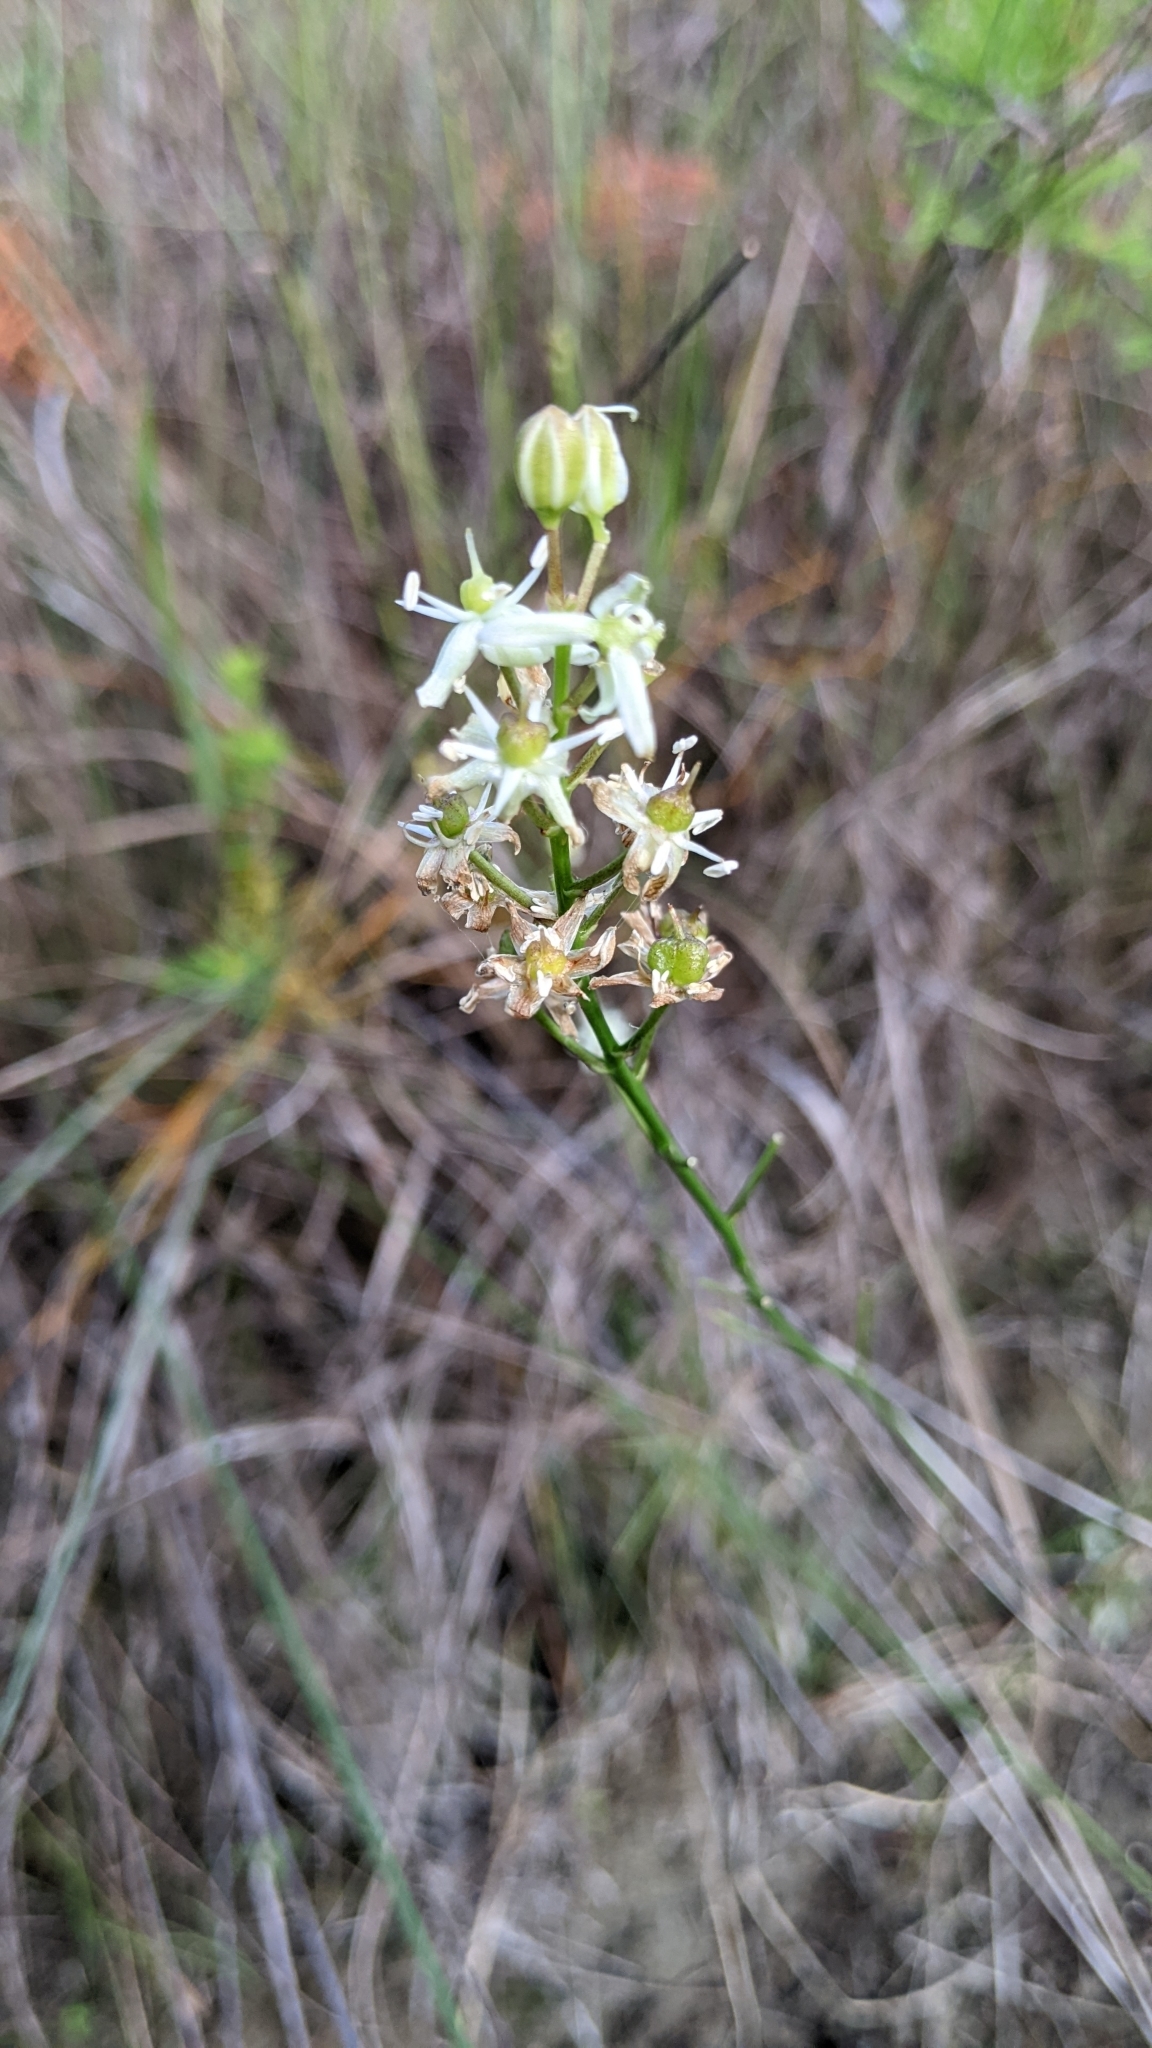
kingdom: Plantae
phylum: Tracheophyta
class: Liliopsida
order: Asparagales
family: Asparagaceae
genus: Schoenolirion
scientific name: Schoenolirion albiflorum
